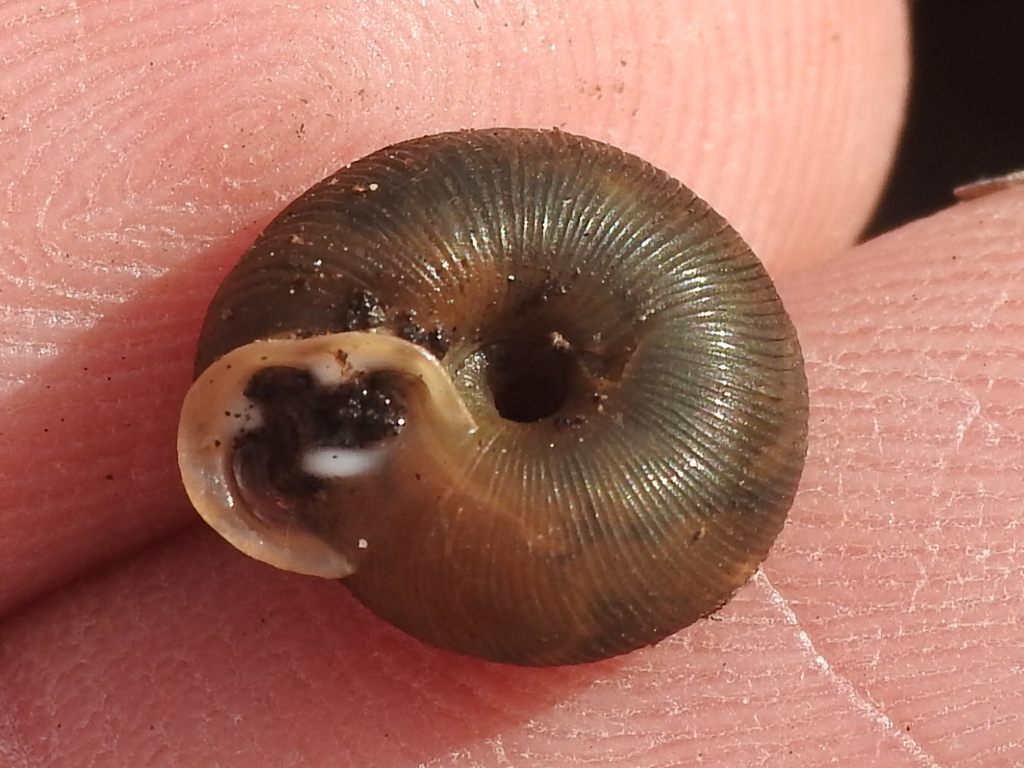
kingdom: Animalia
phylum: Mollusca
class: Gastropoda
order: Stylommatophora
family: Polygyridae
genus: Triodopsis
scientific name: Triodopsis hopetonensis
